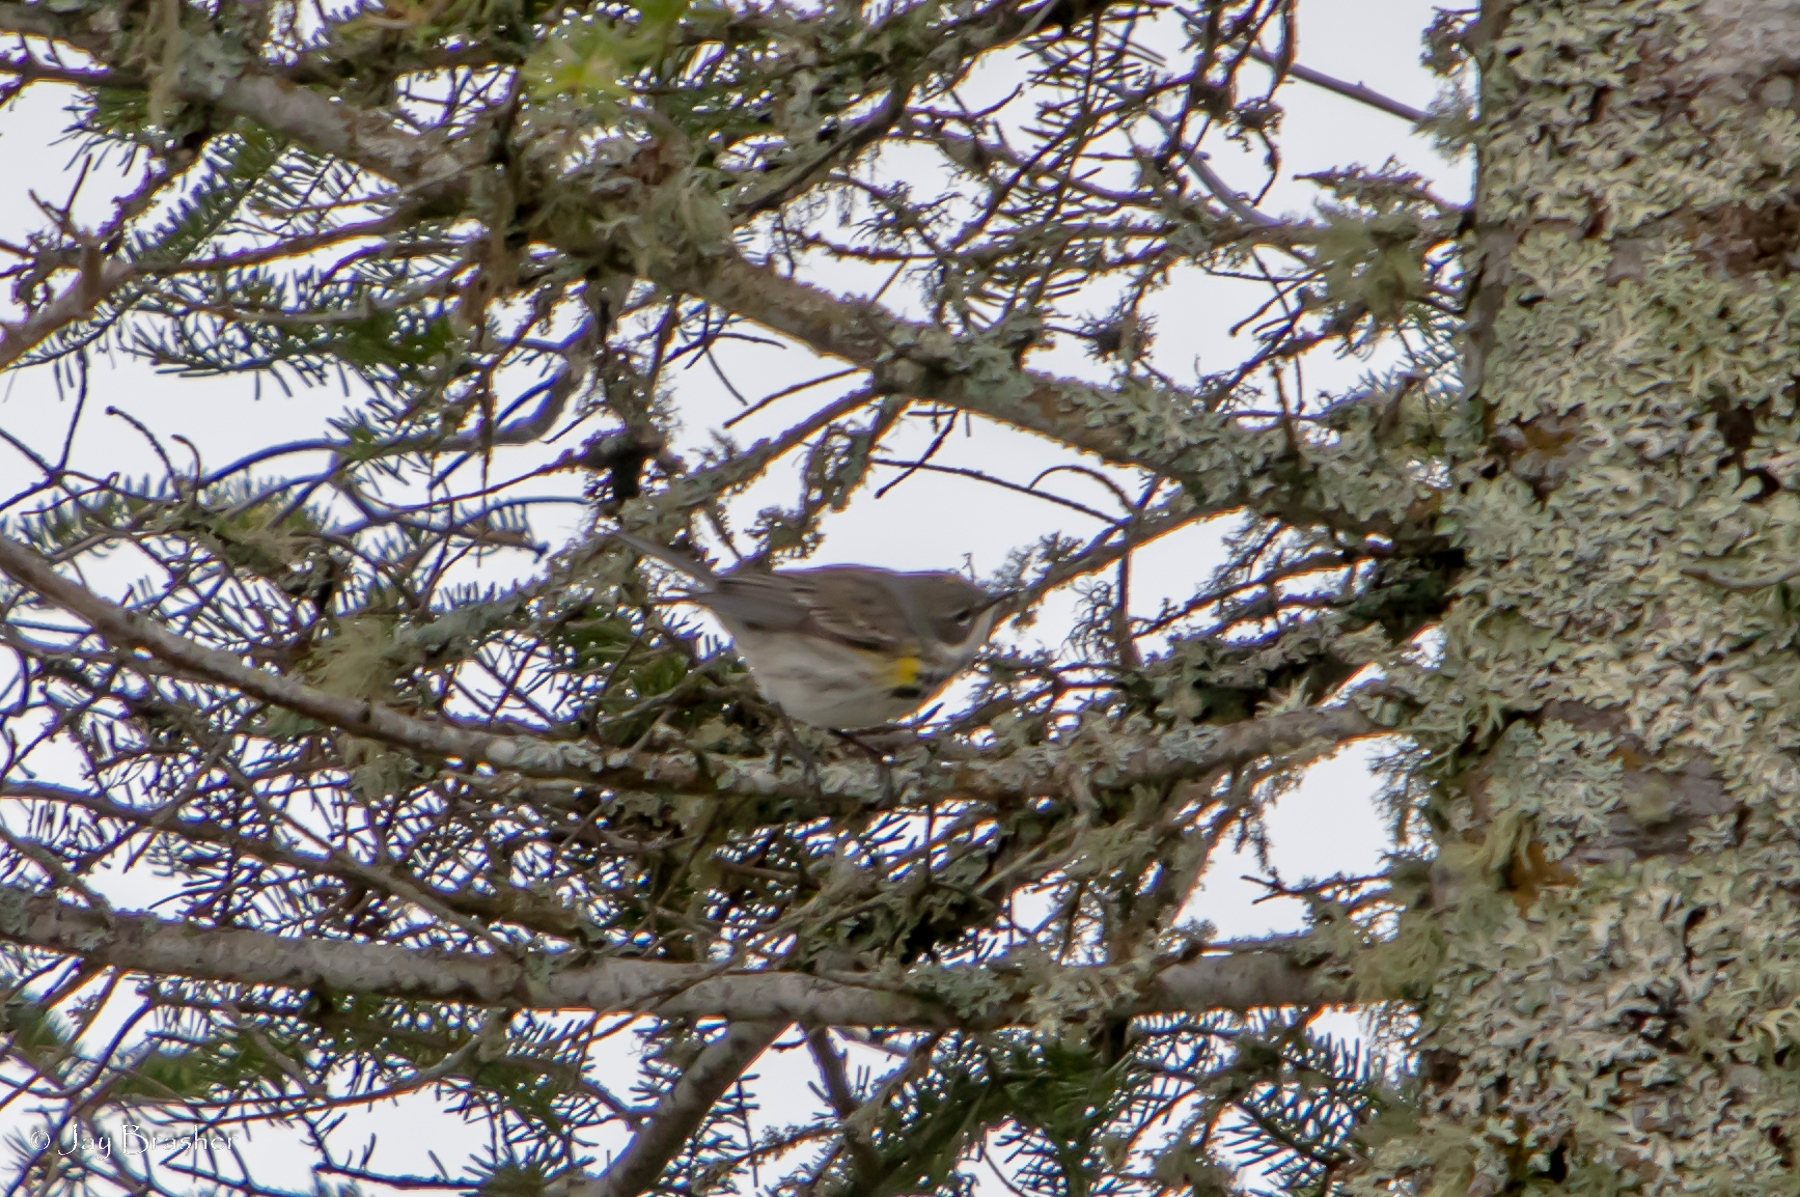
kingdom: Animalia
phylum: Chordata
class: Aves
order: Passeriformes
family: Parulidae
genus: Setophaga
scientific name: Setophaga coronata
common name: Myrtle warbler
